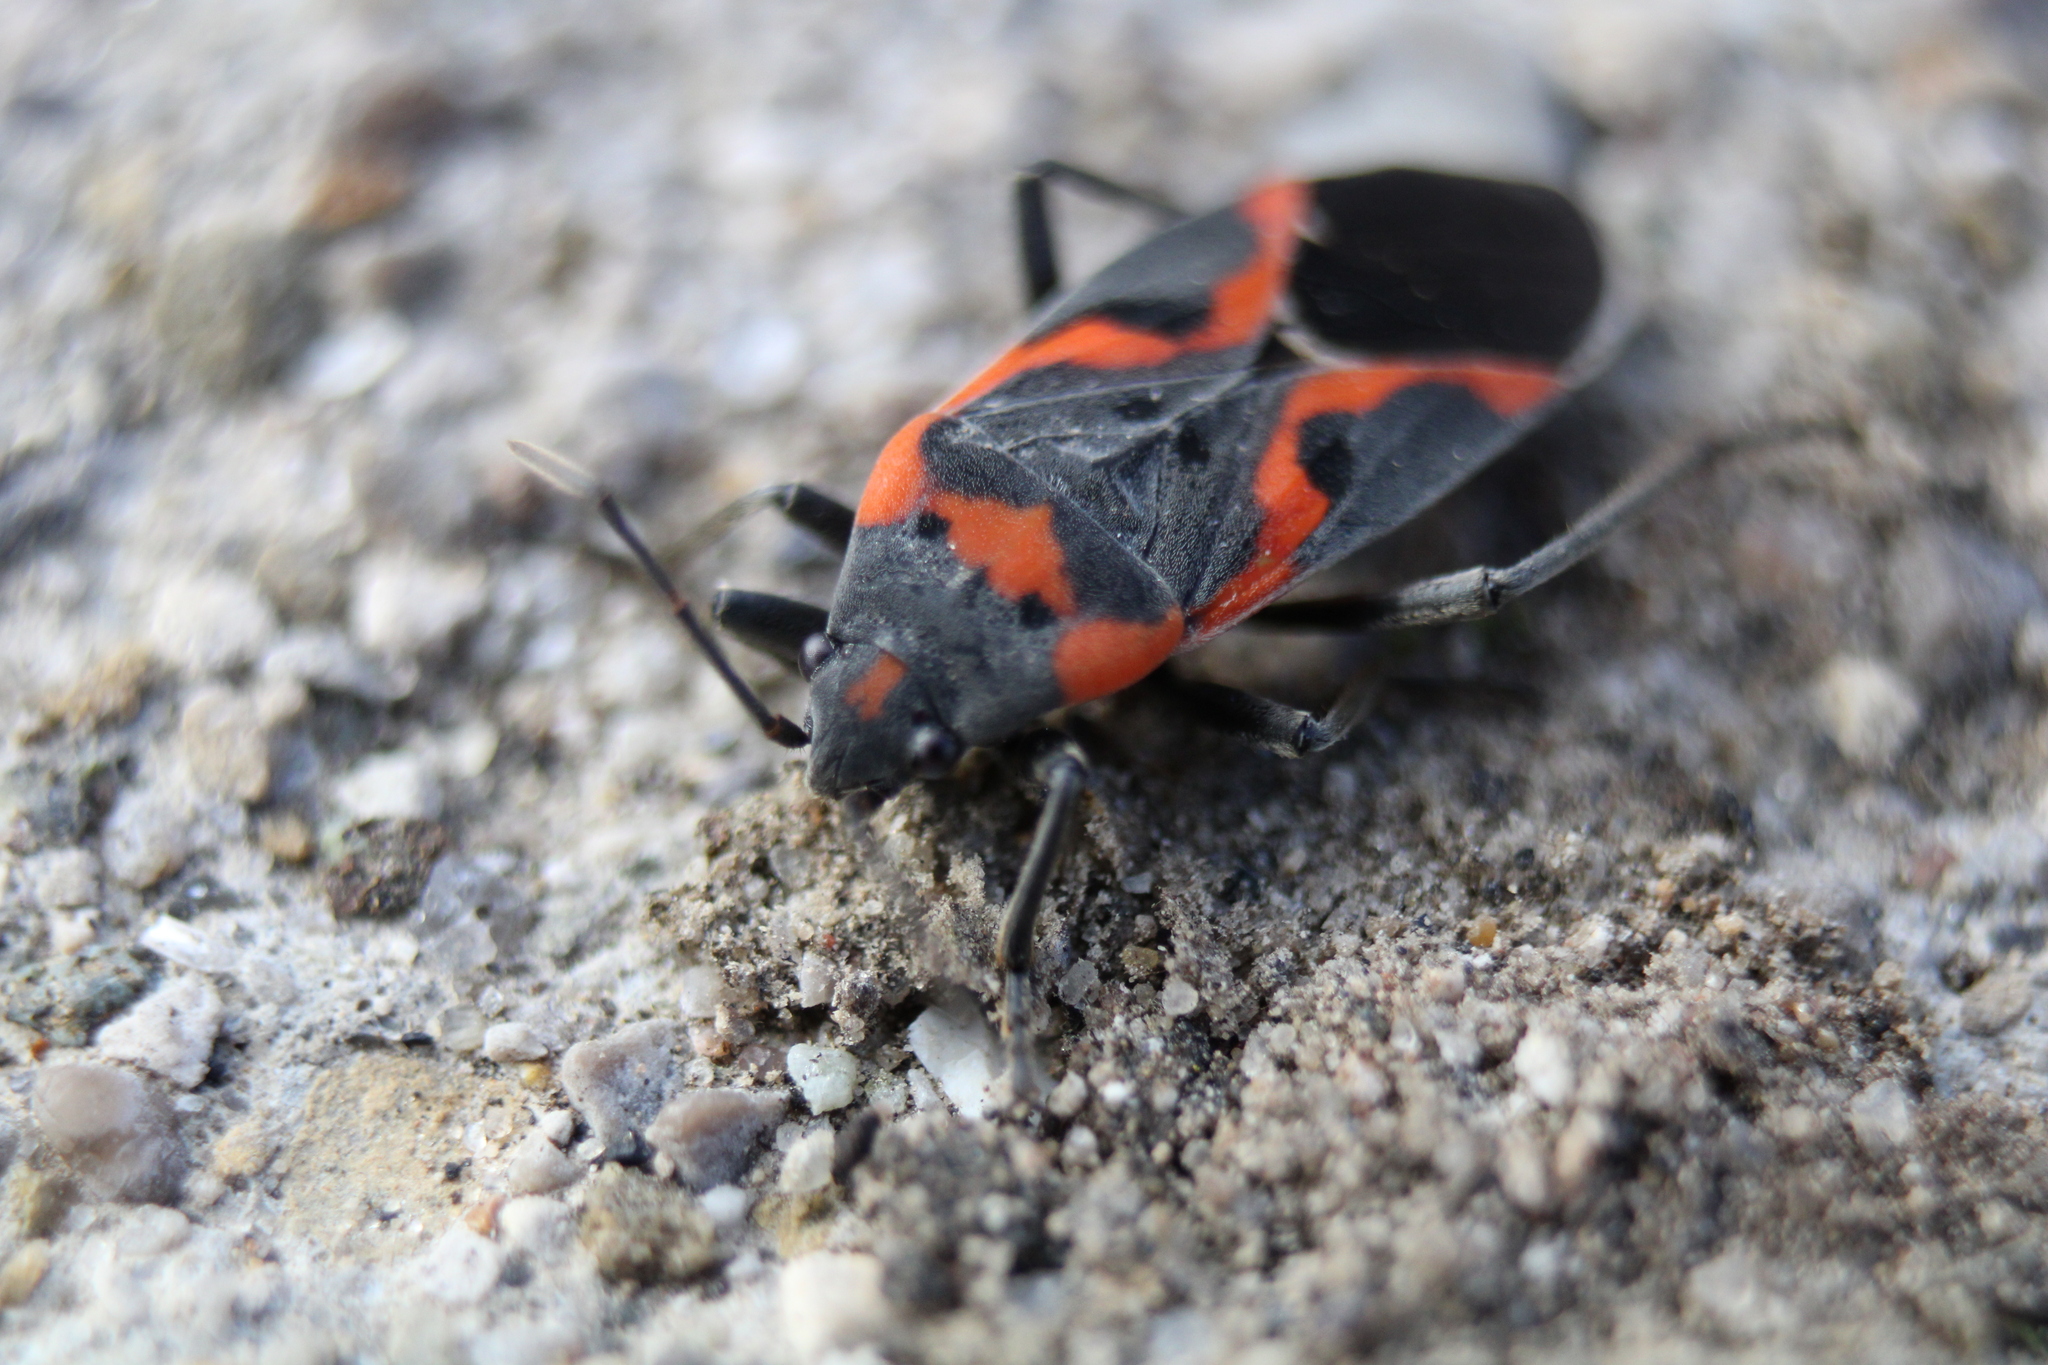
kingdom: Animalia
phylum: Arthropoda
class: Insecta
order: Hemiptera
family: Lygaeidae
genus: Lygaeus
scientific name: Lygaeus kalmii
